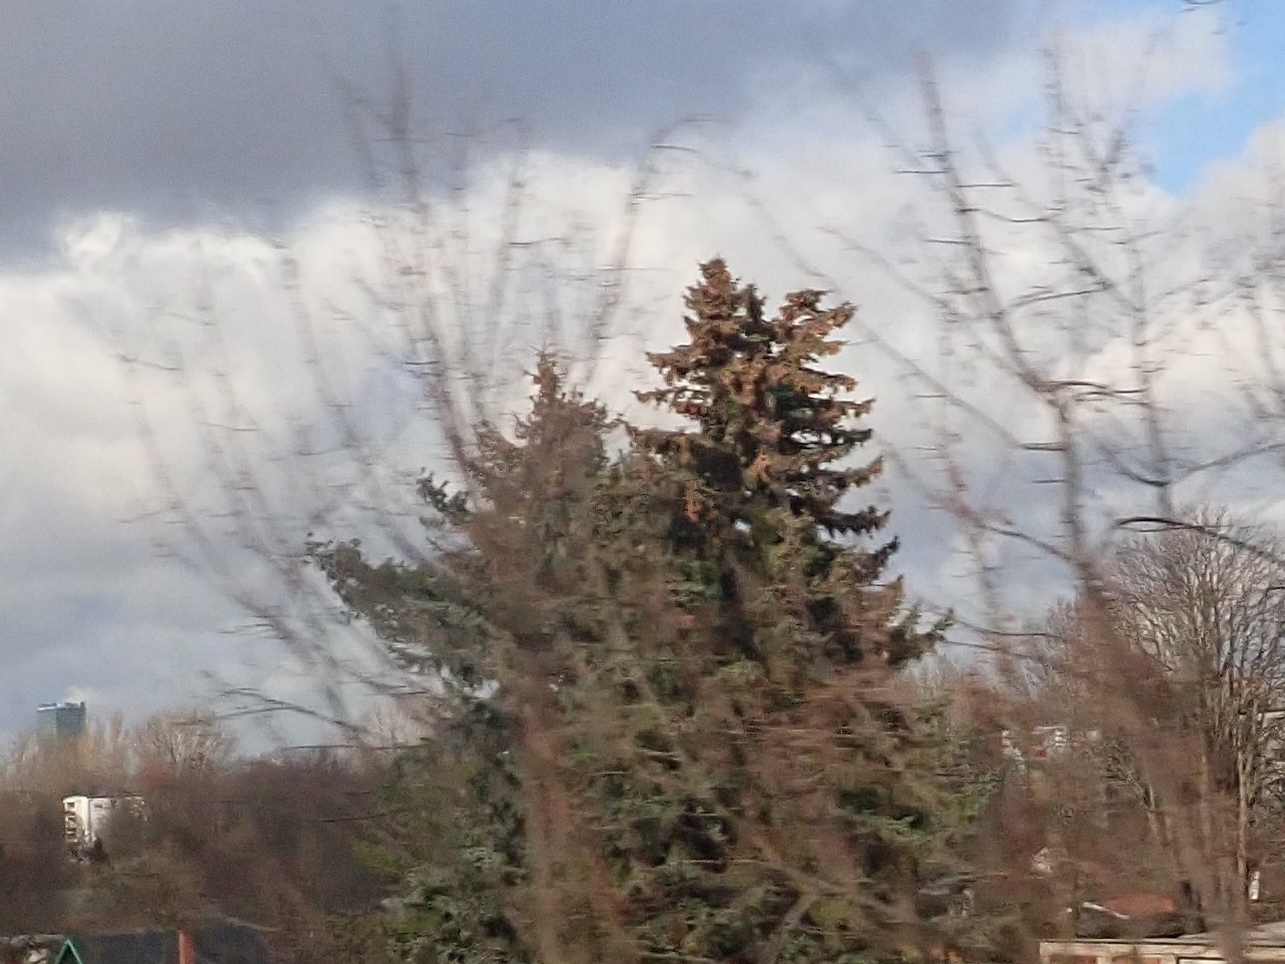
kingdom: Plantae
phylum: Tracheophyta
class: Pinopsida
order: Pinales
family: Pinaceae
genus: Picea
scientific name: Picea abies
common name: Norway spruce
